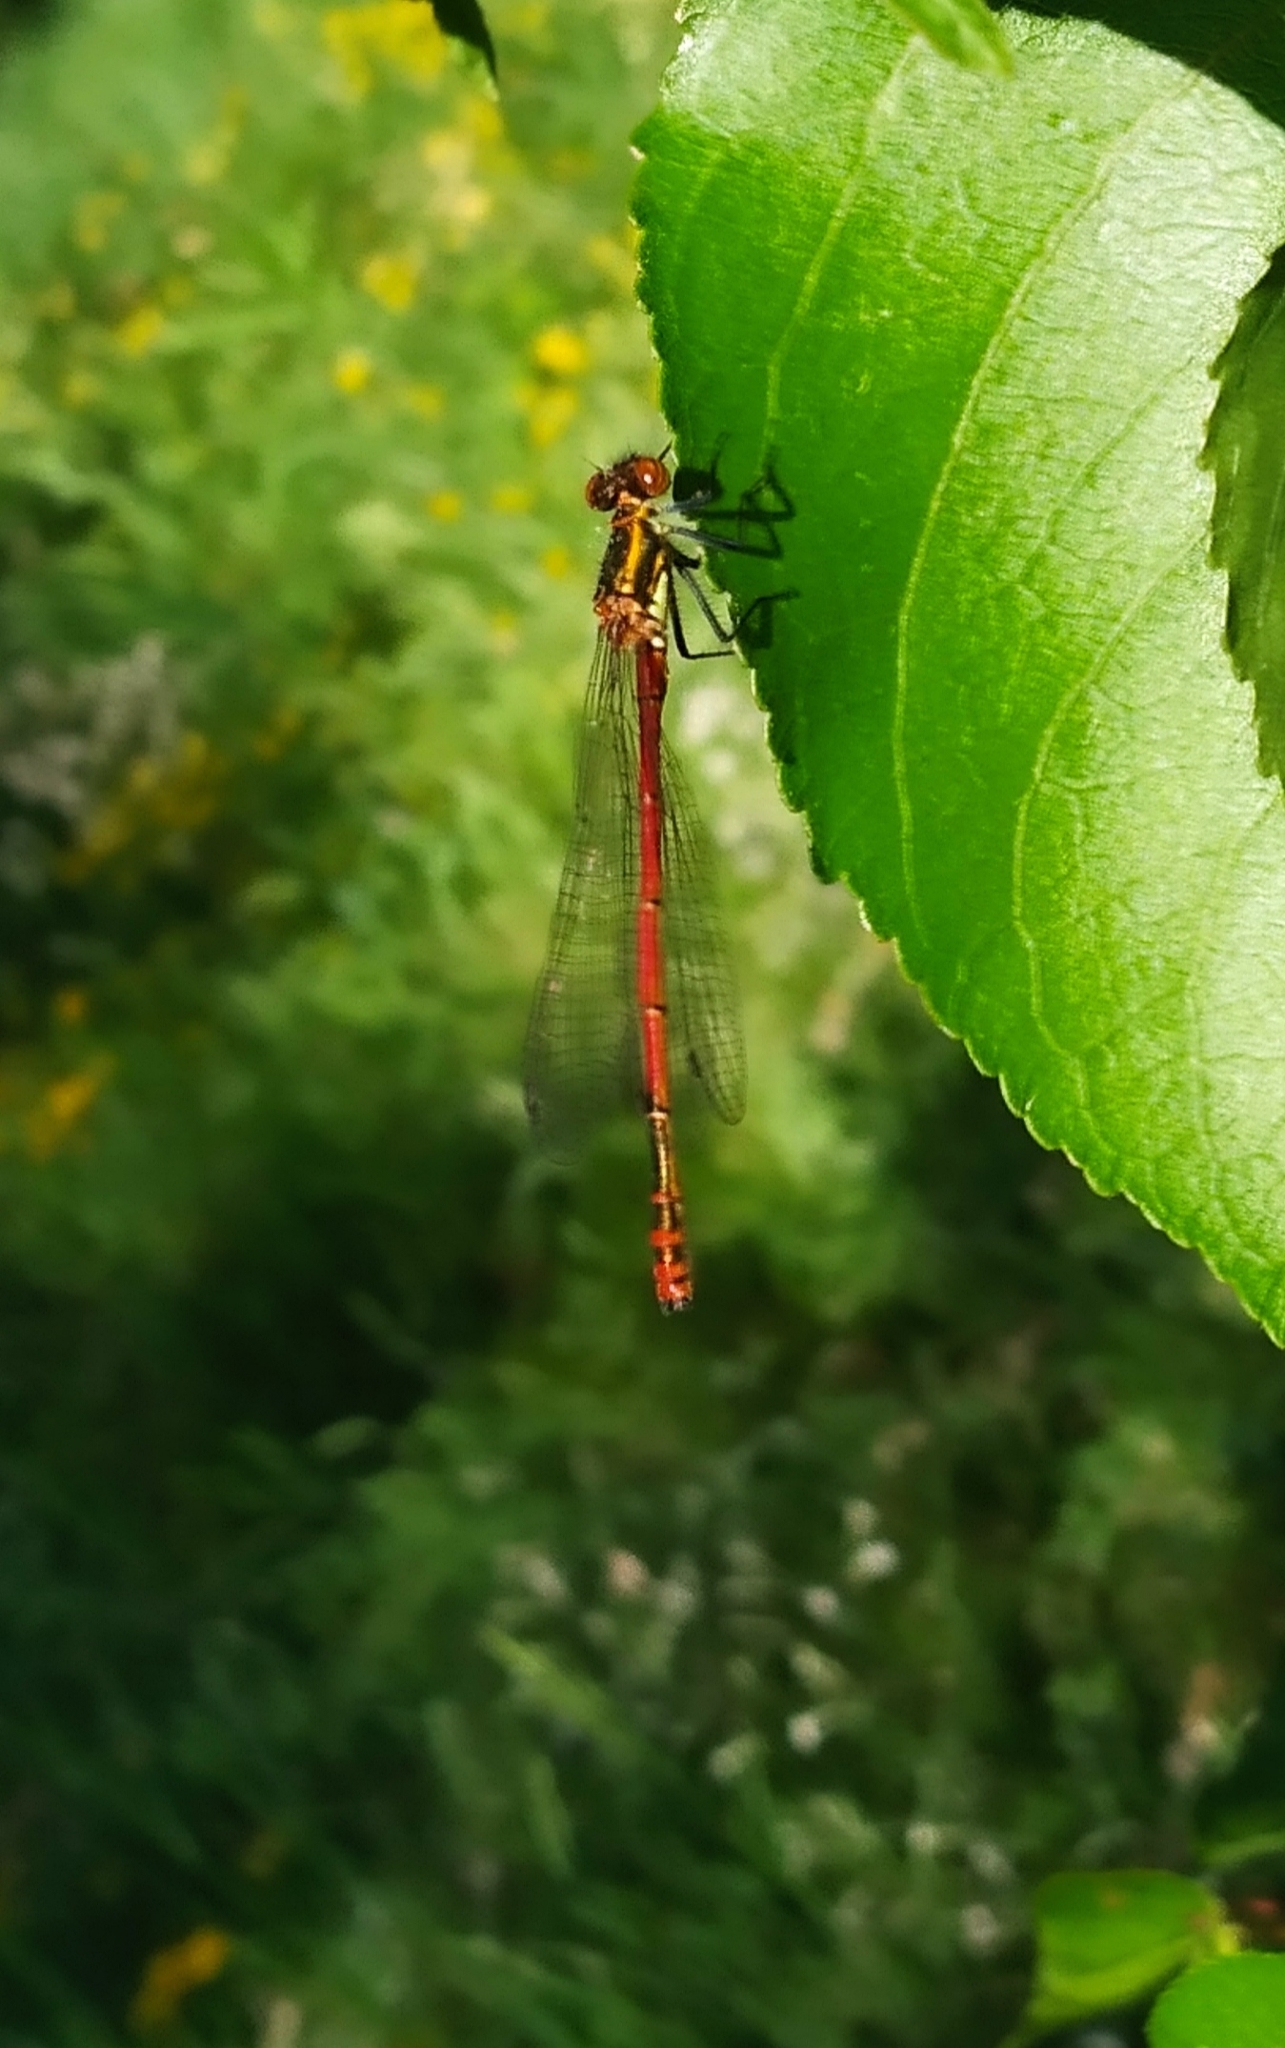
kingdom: Animalia
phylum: Arthropoda
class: Insecta
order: Odonata
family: Coenagrionidae
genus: Pyrrhosoma
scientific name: Pyrrhosoma nymphula
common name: Large red damsel
